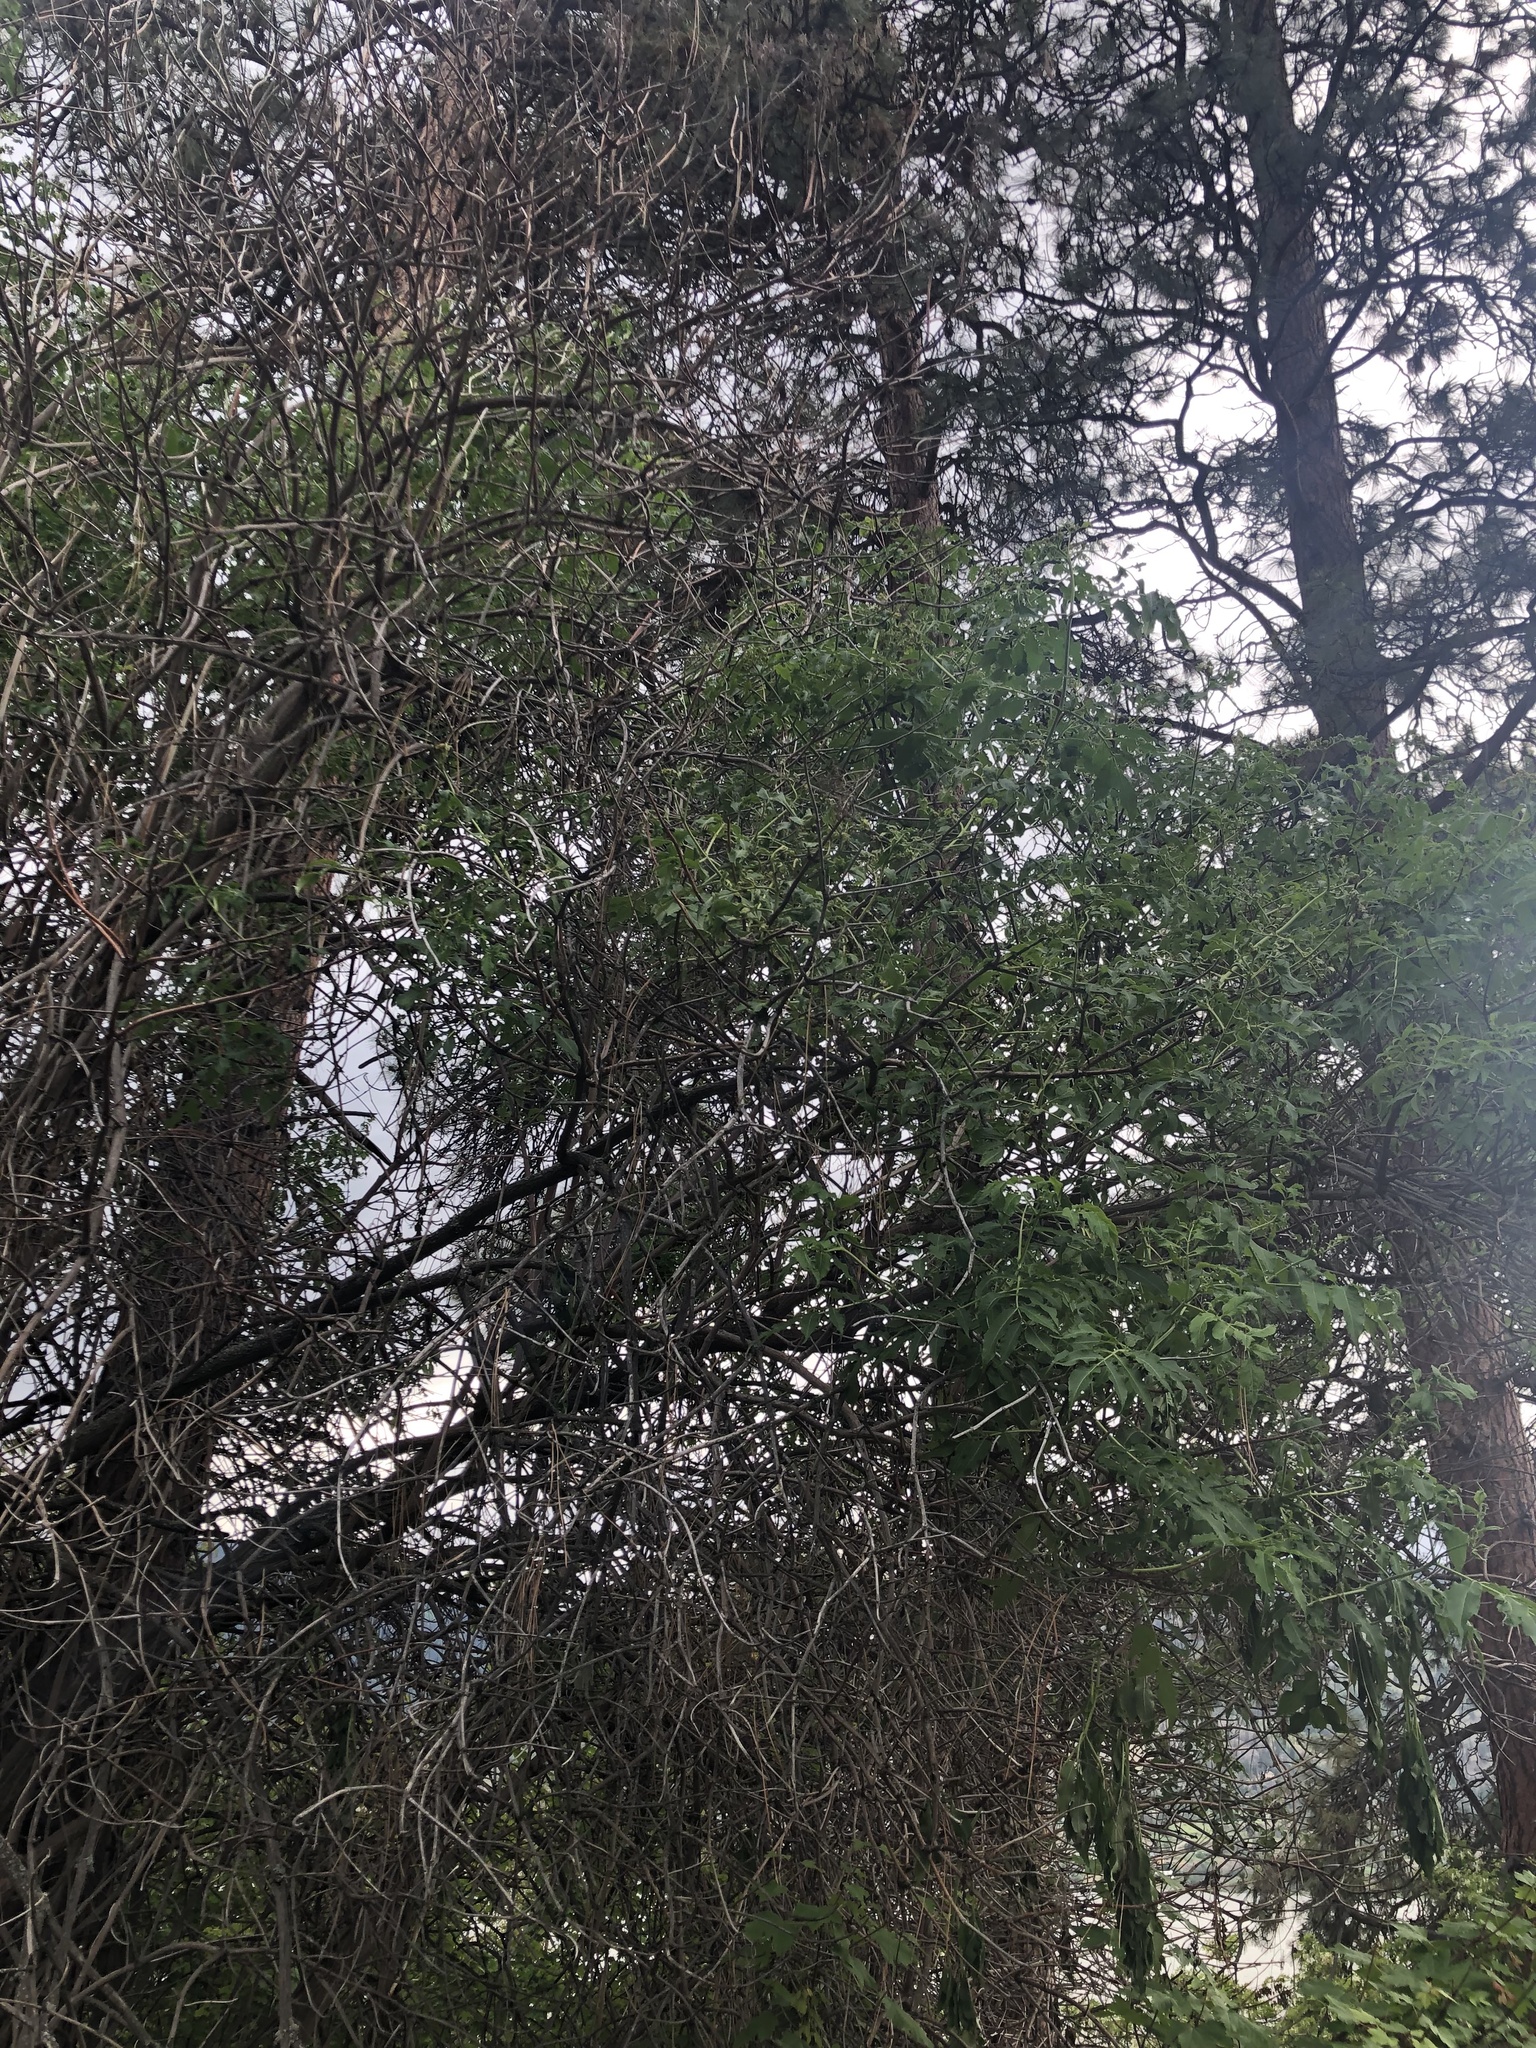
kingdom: Plantae
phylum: Tracheophyta
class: Magnoliopsida
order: Dipsacales
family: Viburnaceae
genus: Sambucus
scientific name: Sambucus cerulea
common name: Blue elder
